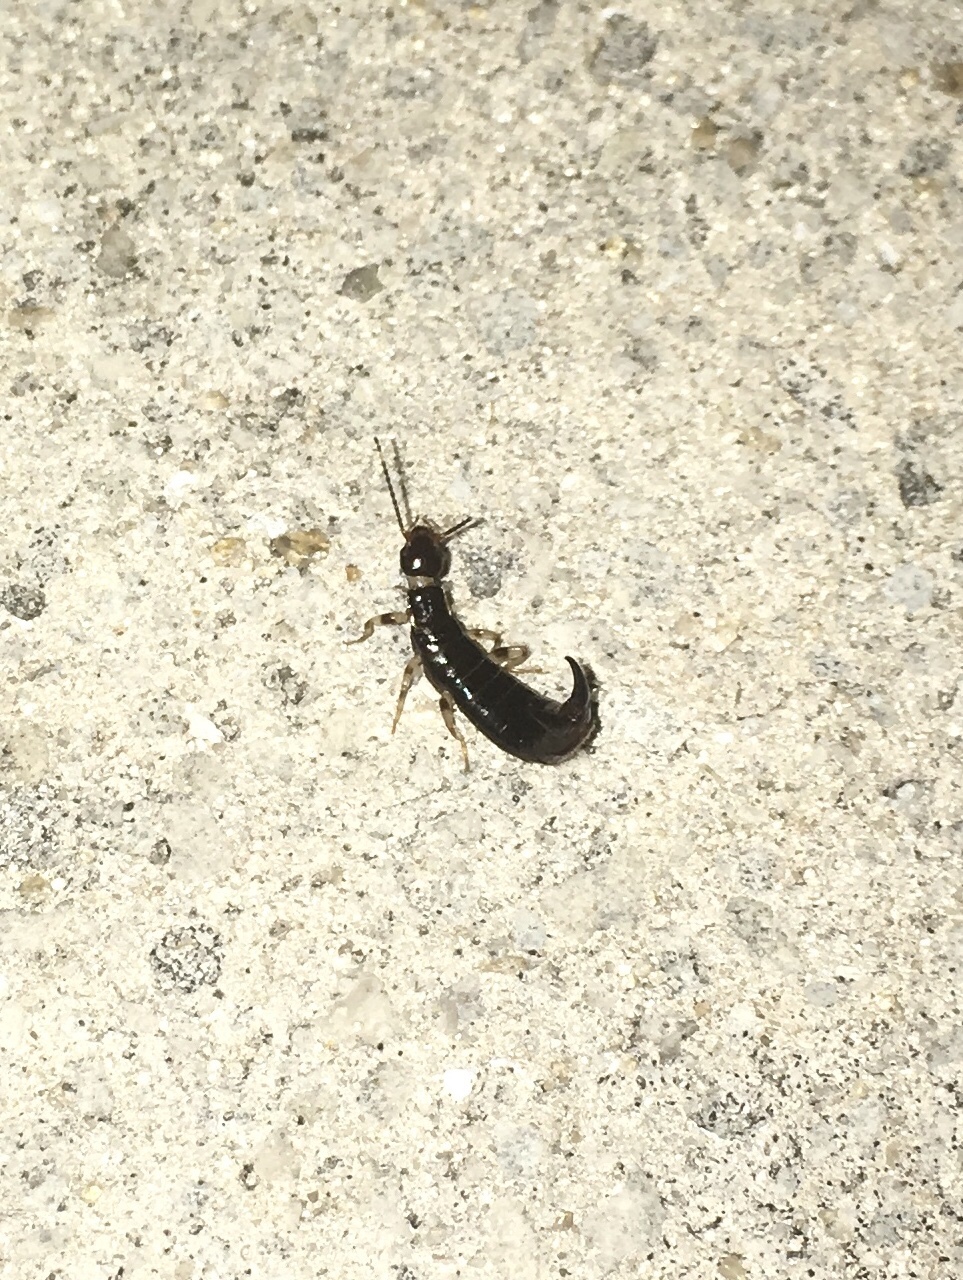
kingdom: Animalia
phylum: Arthropoda
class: Insecta
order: Dermaptera
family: Anisolabididae
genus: Euborellia
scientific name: Euborellia annulipes
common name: Ringlegged earwig
